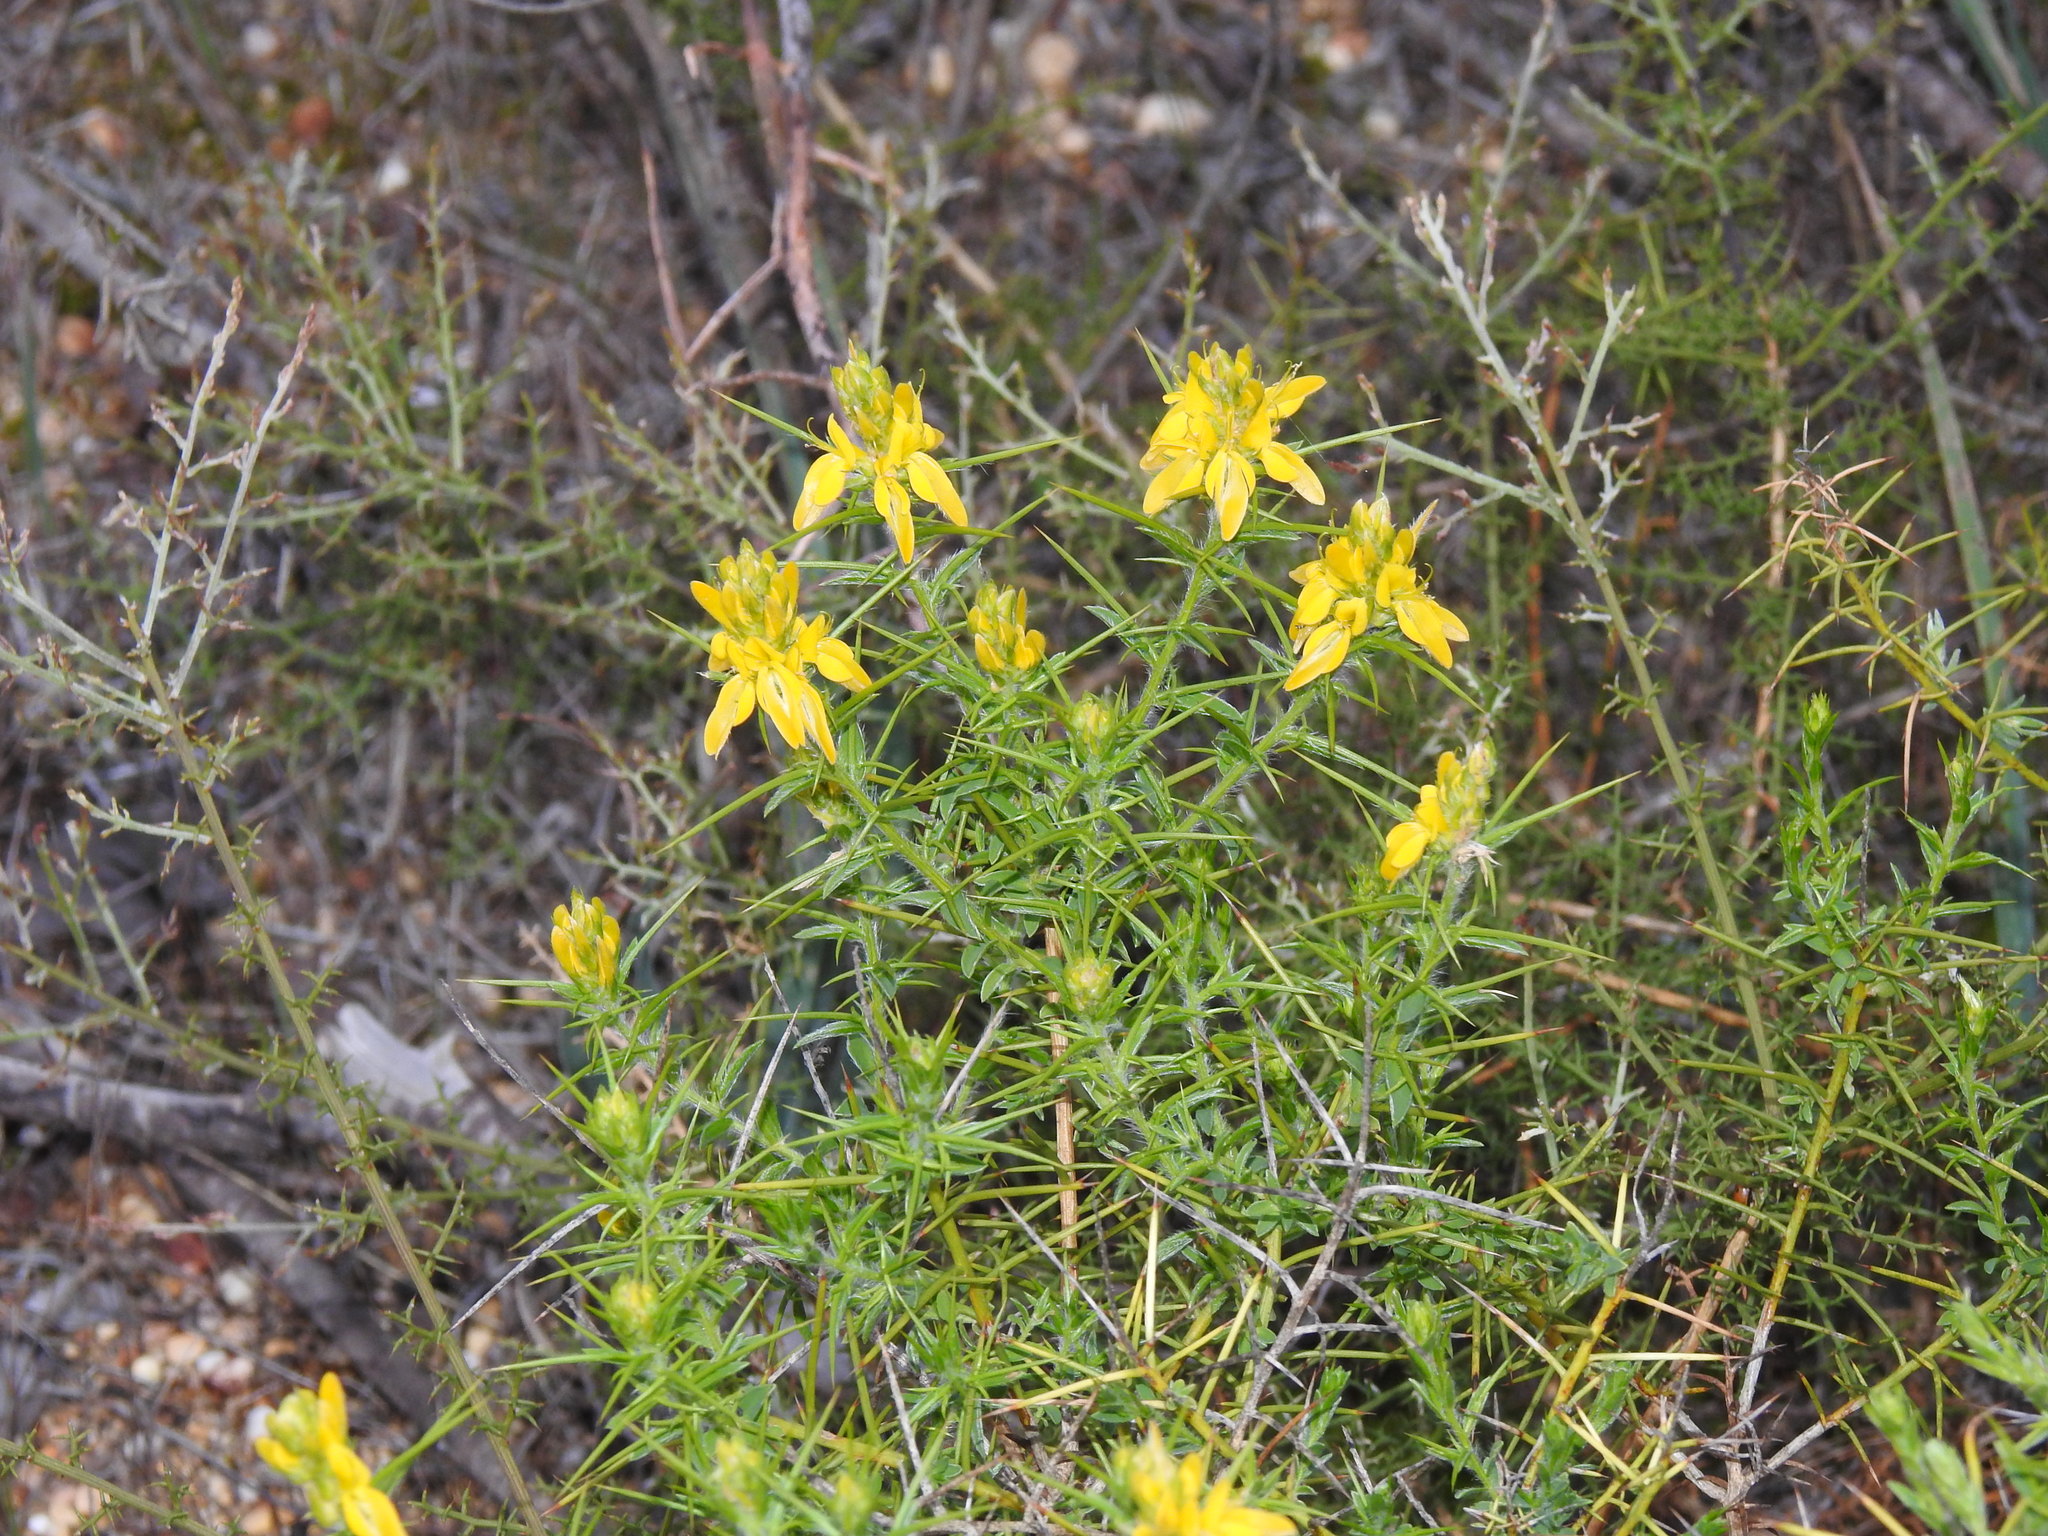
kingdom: Plantae
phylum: Tracheophyta
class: Magnoliopsida
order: Fabales
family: Fabaceae
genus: Genista
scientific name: Genista hirsuta
